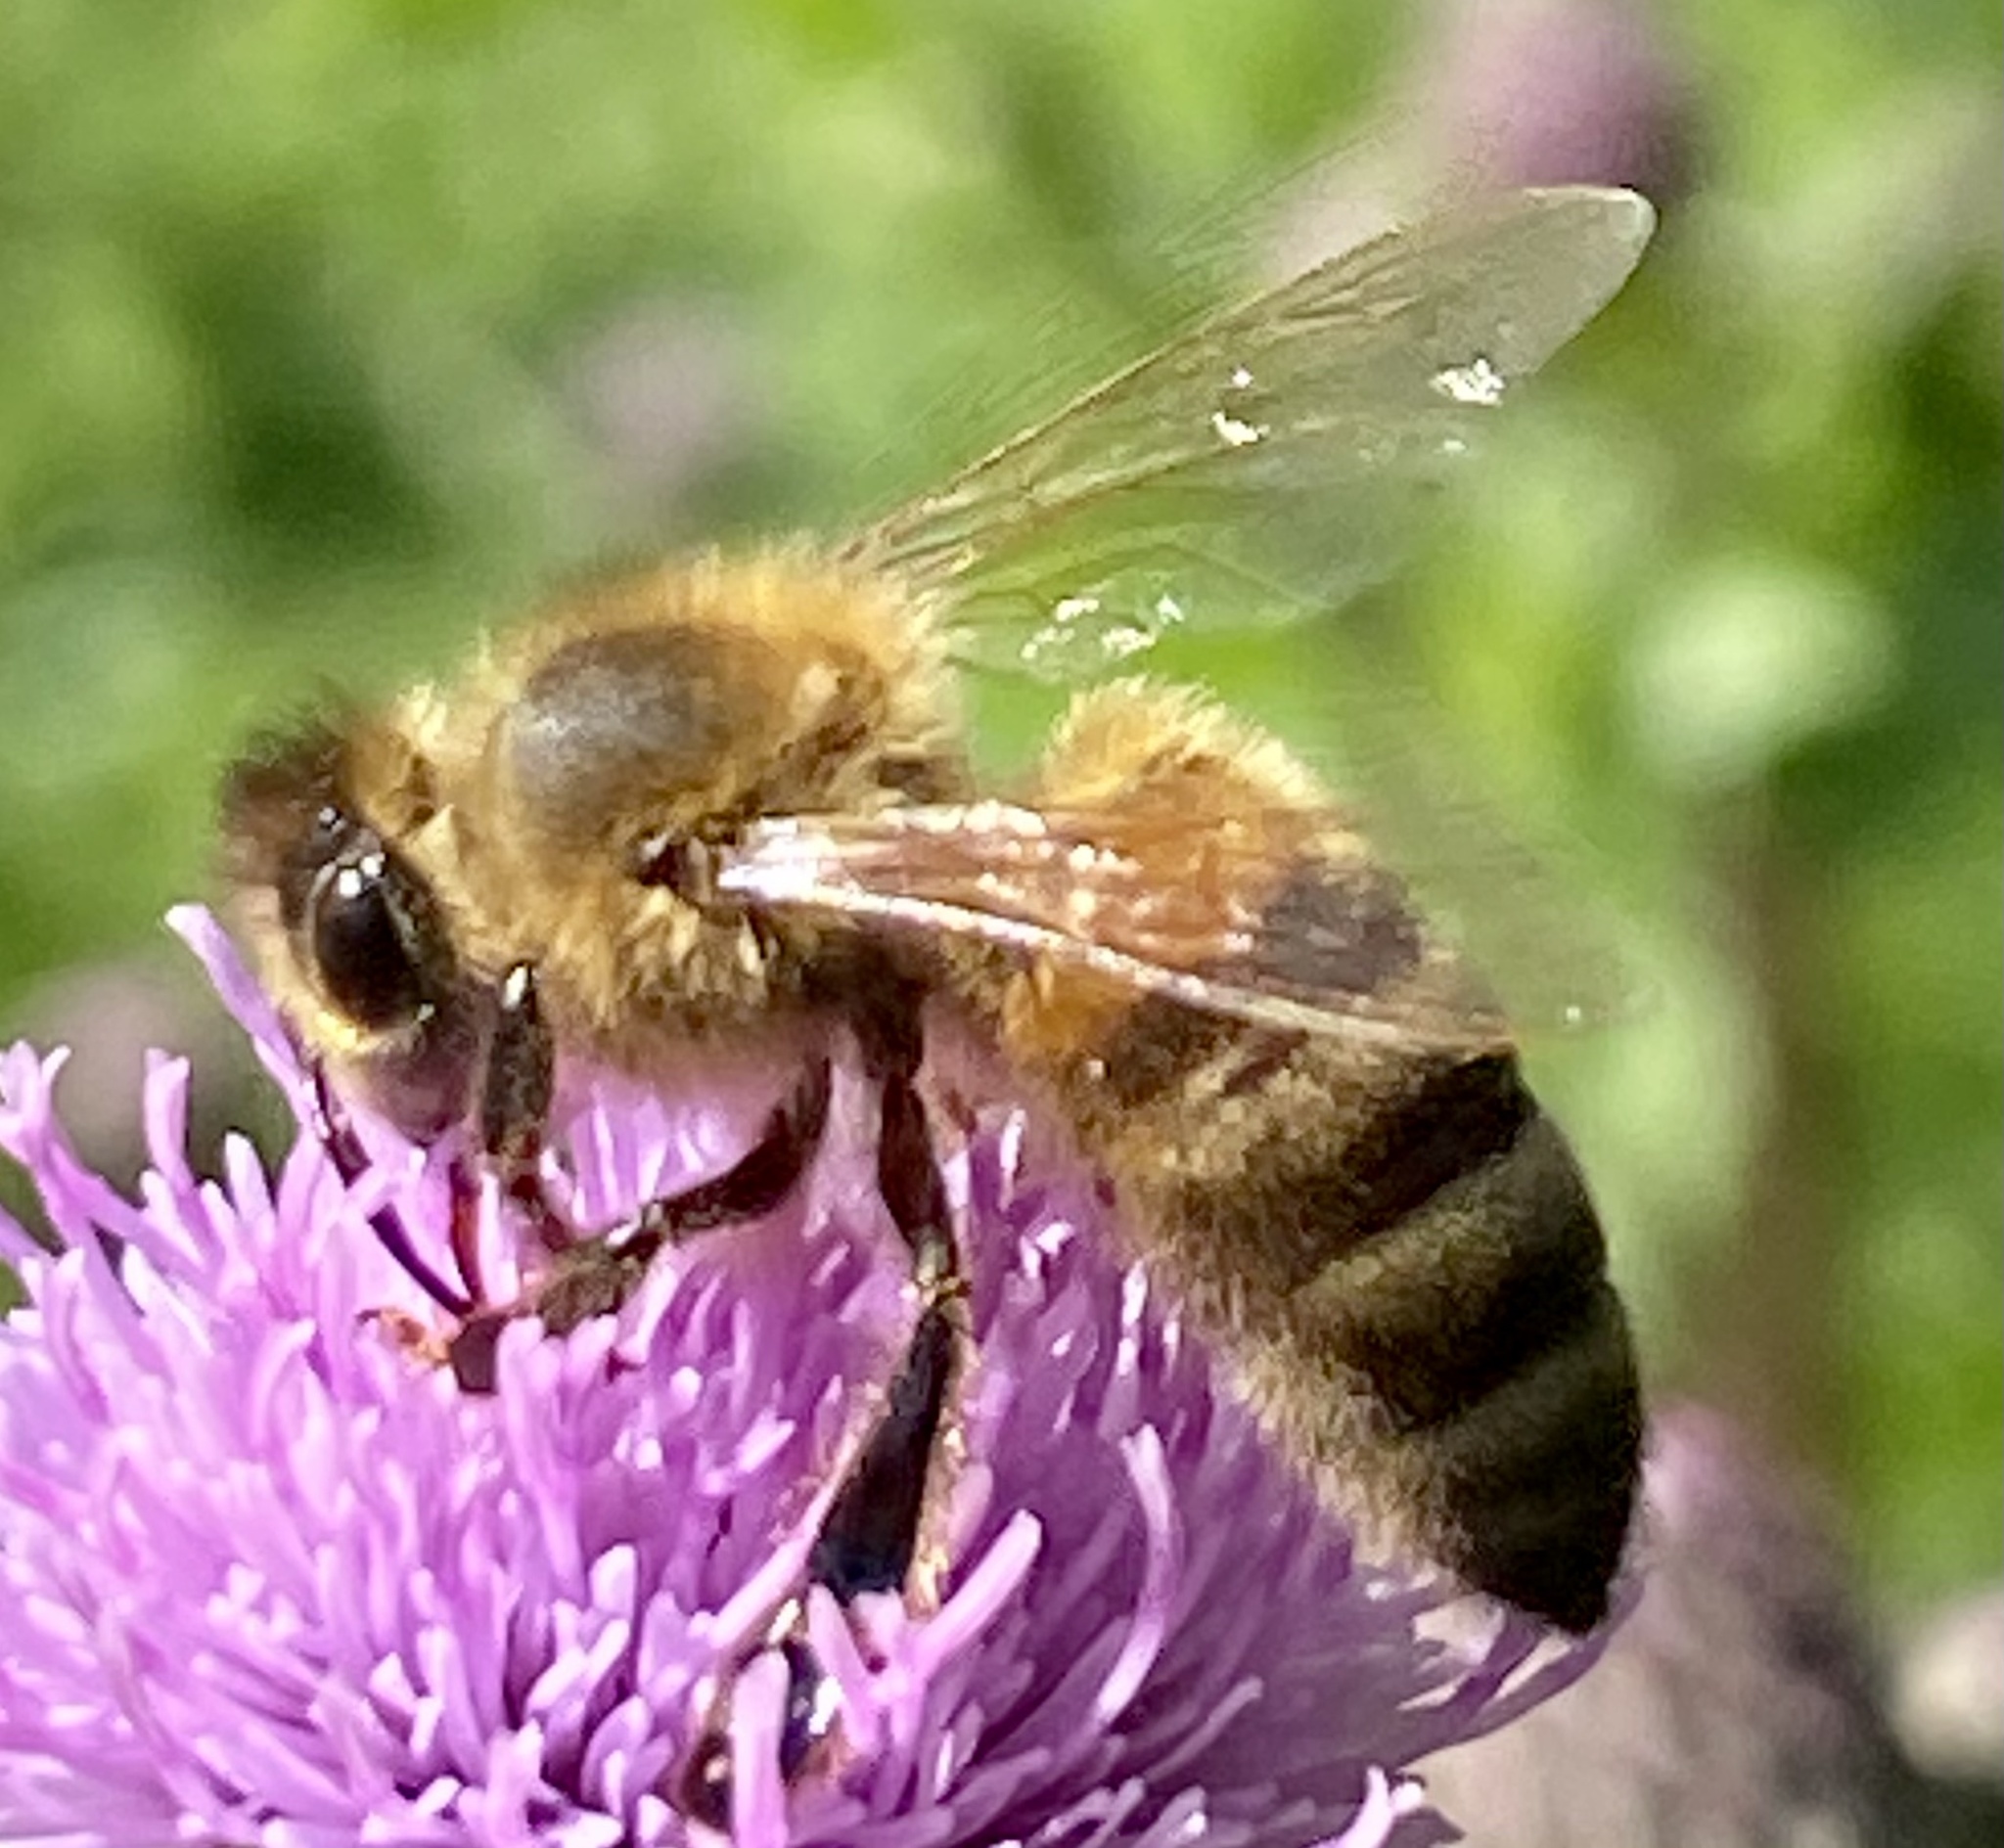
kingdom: Animalia
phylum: Arthropoda
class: Insecta
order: Hymenoptera
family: Apidae
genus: Apis
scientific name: Apis mellifera
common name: Honey bee
